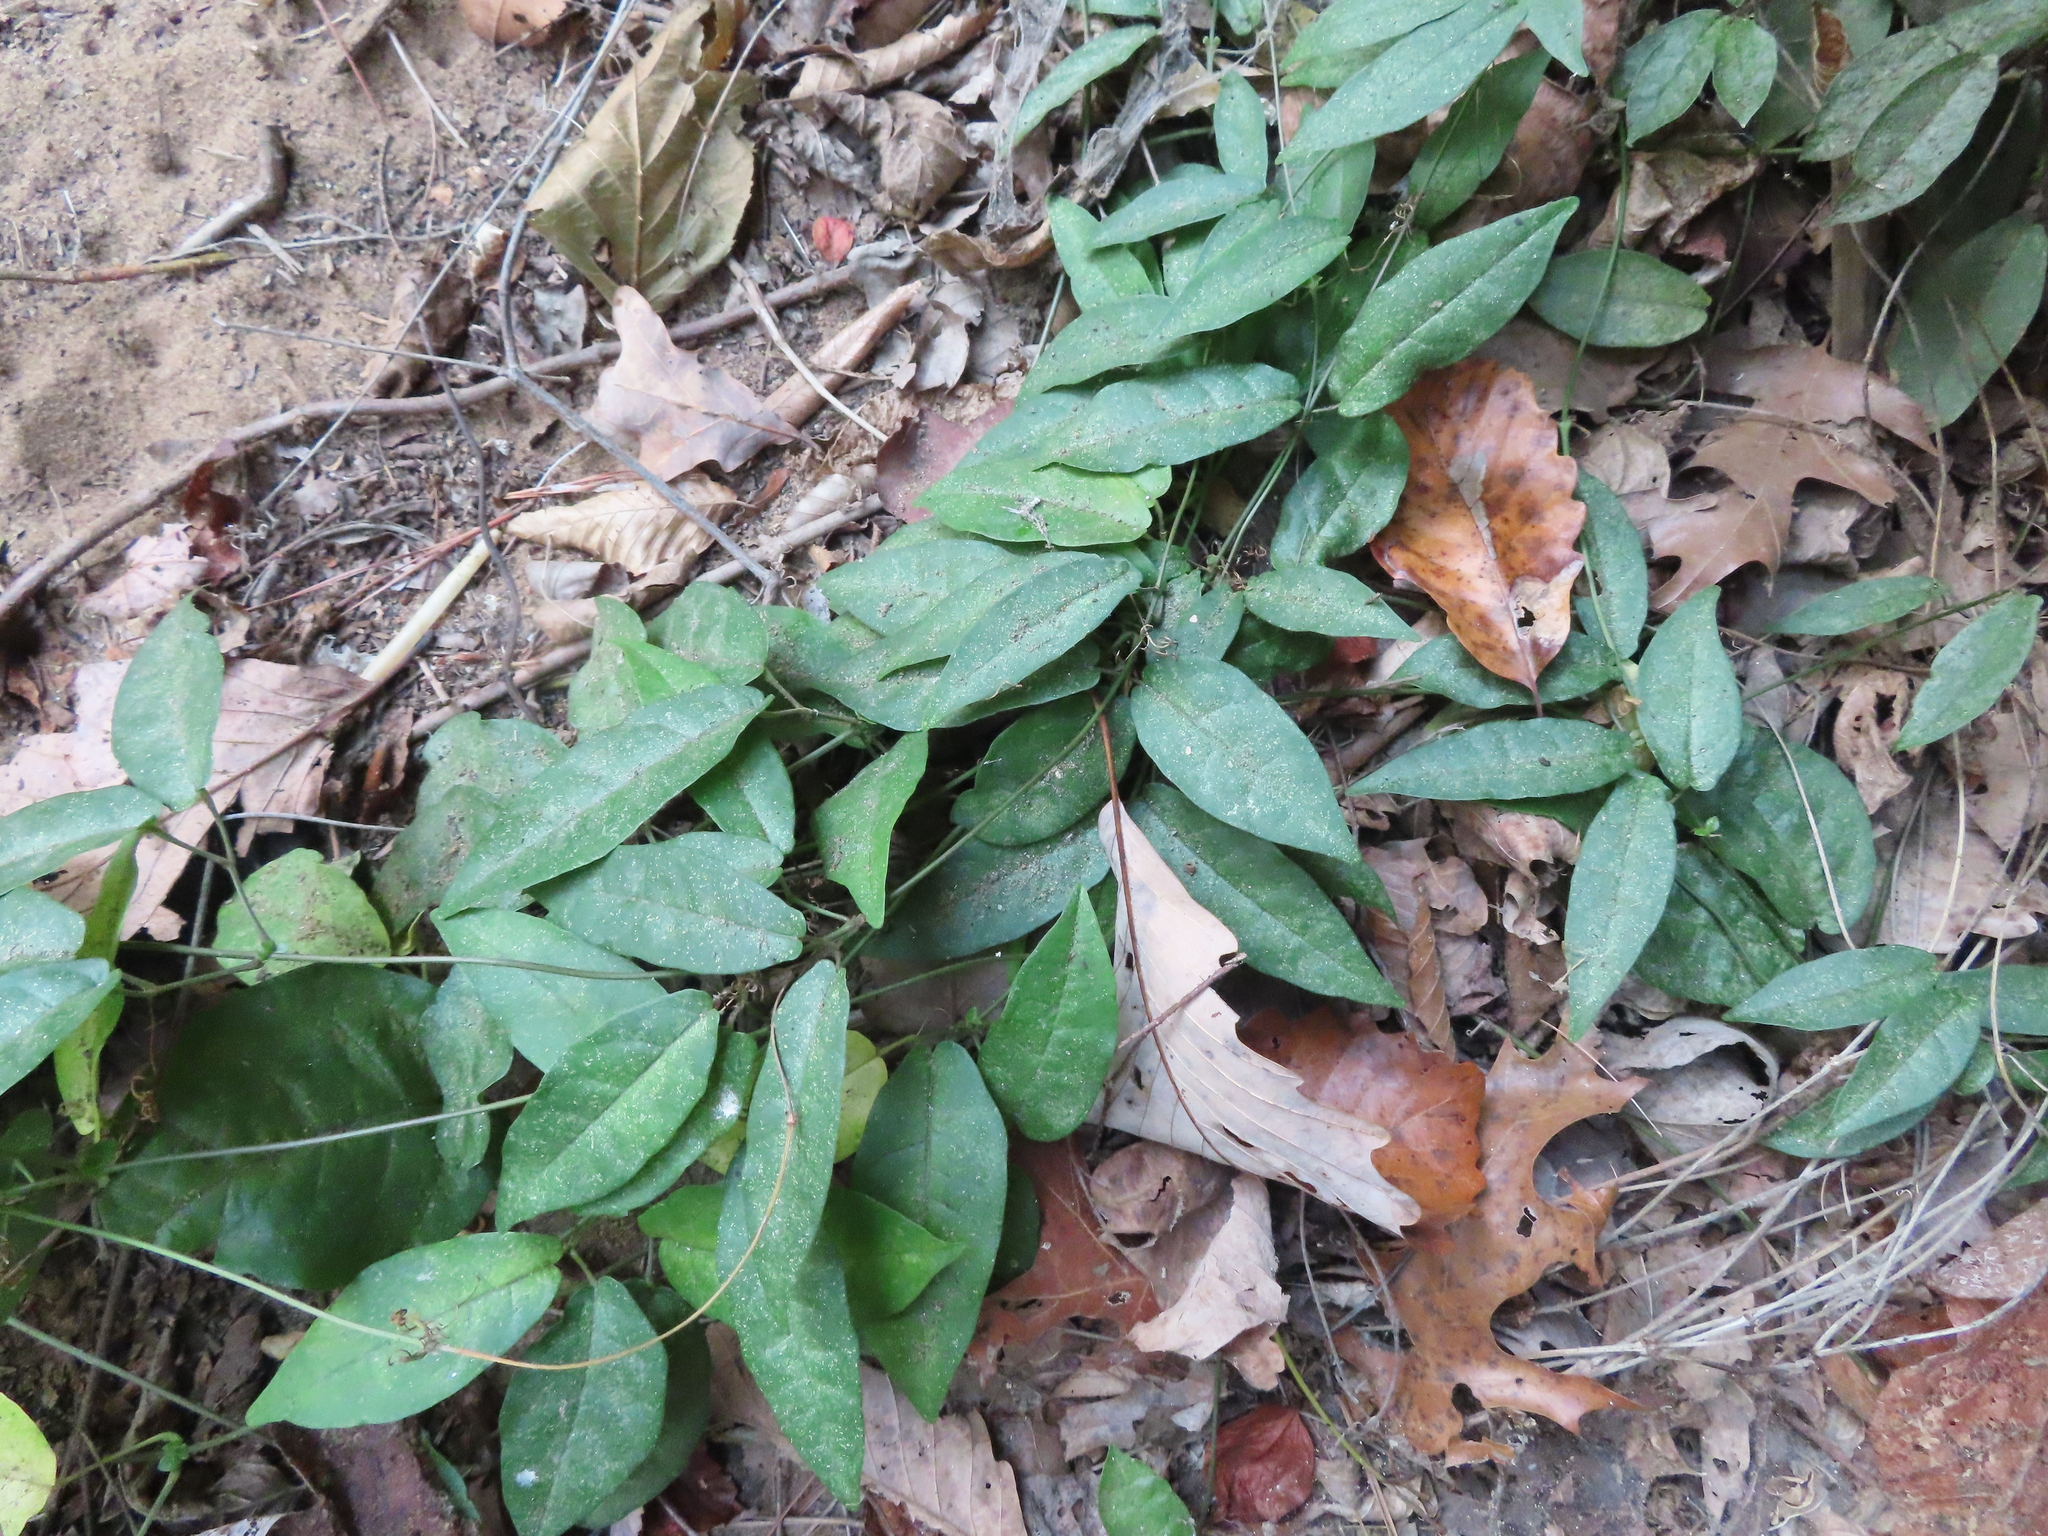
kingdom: Plantae
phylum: Tracheophyta
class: Magnoliopsida
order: Lamiales
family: Bignoniaceae
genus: Bignonia
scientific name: Bignonia capreolata
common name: Crossvine
